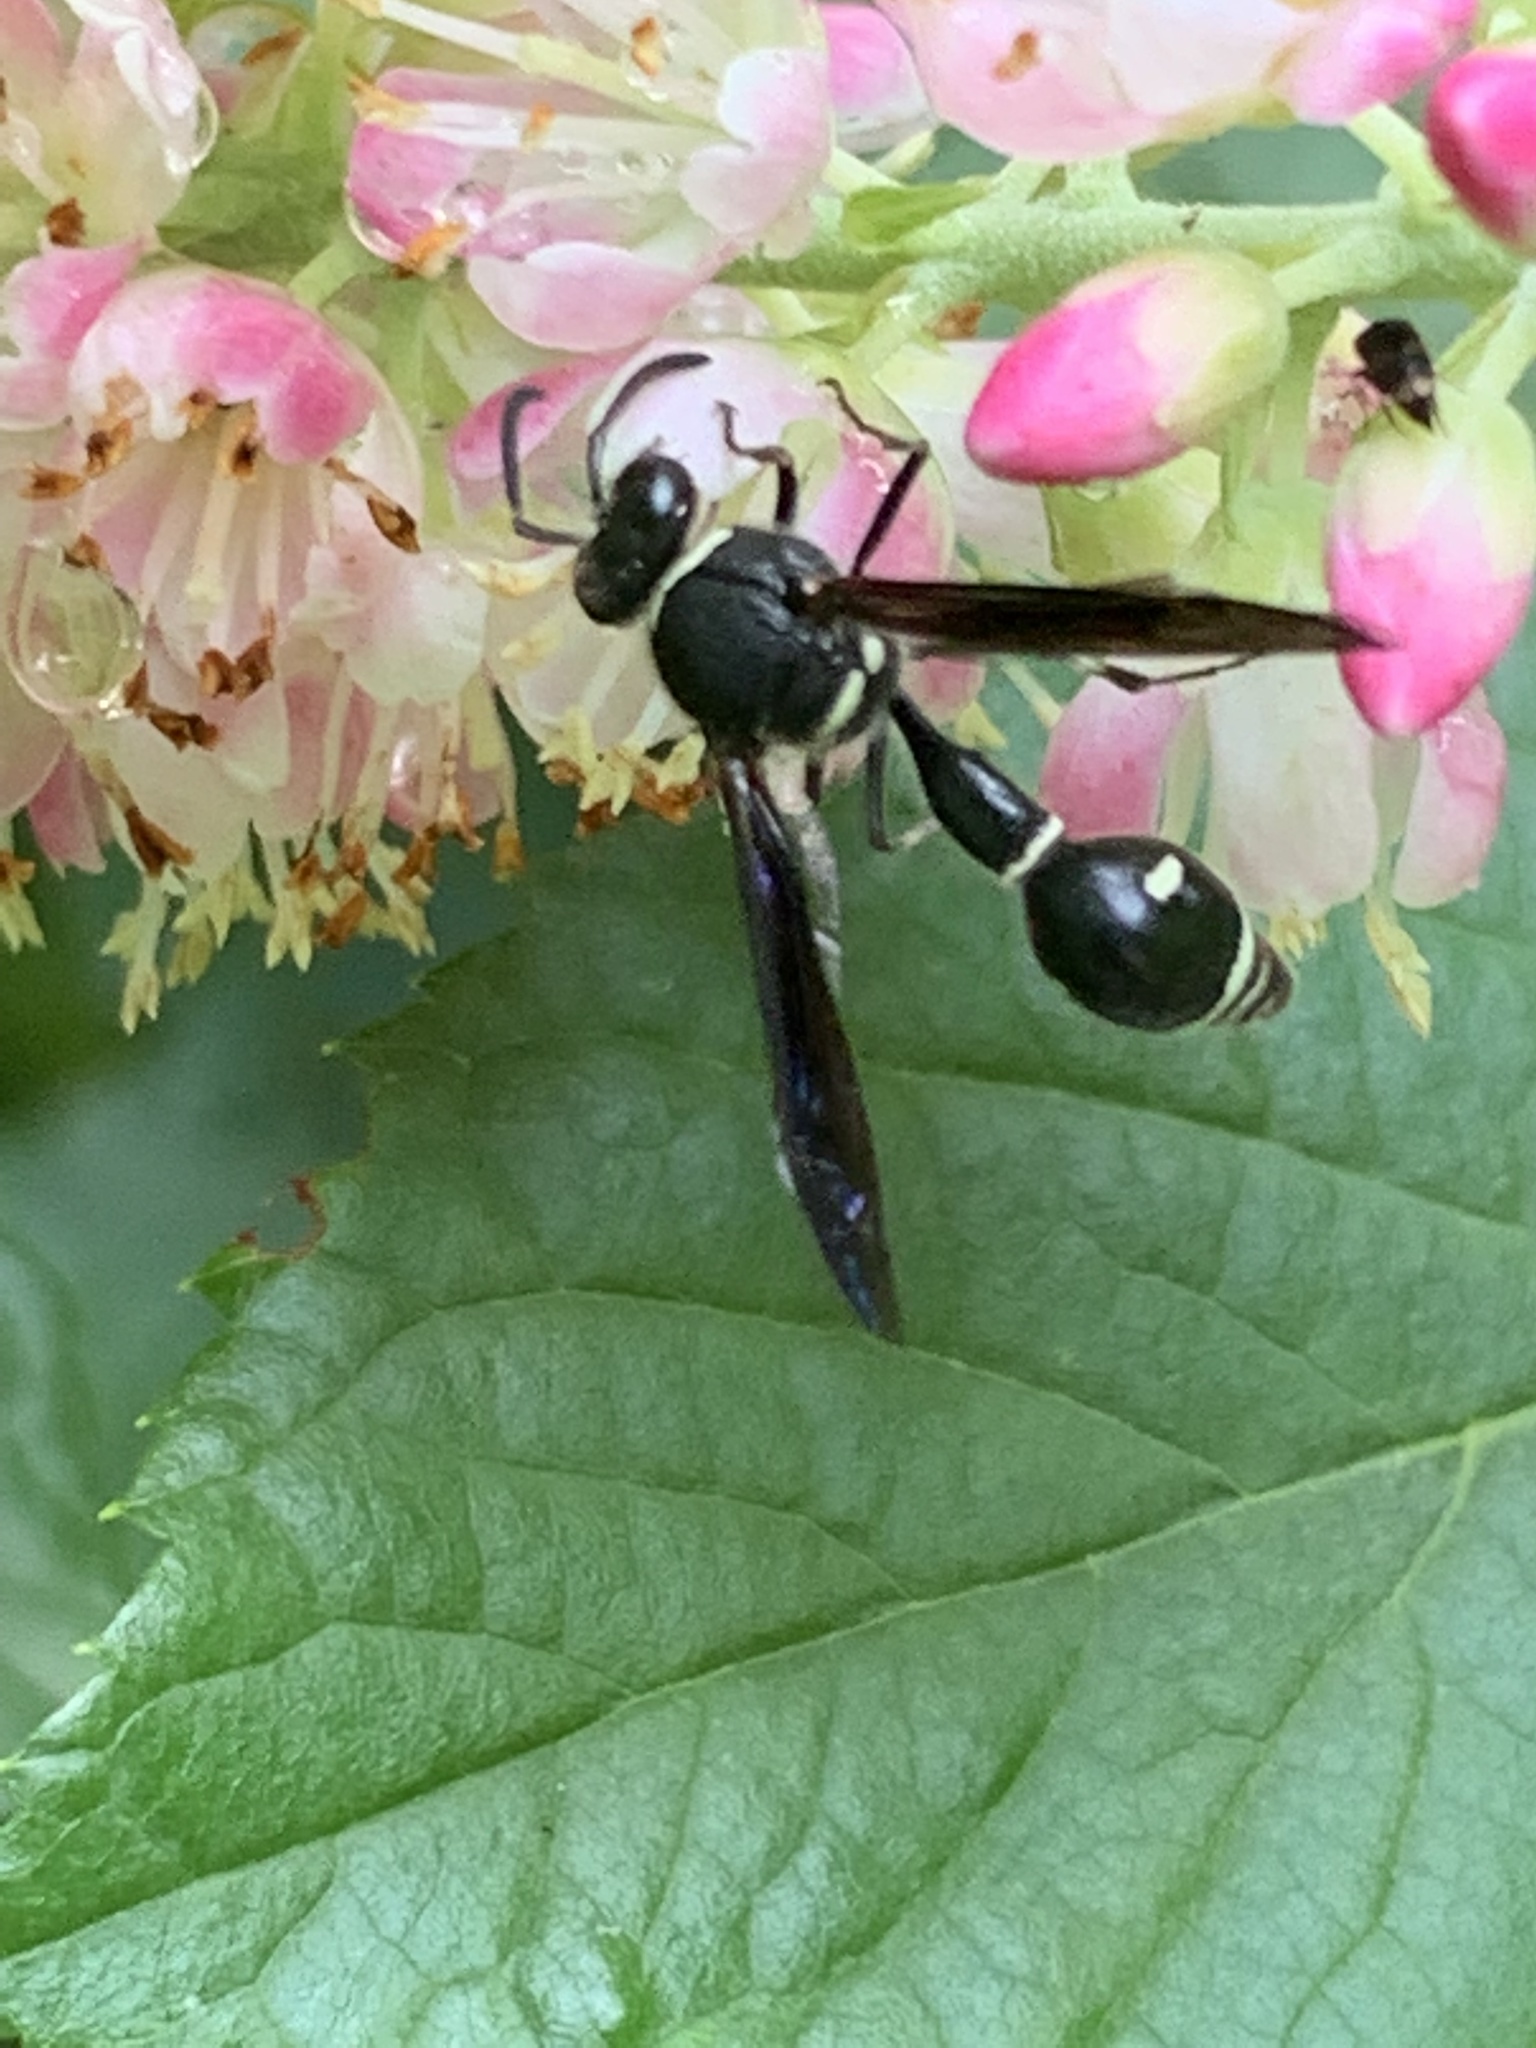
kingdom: Animalia
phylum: Arthropoda
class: Insecta
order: Hymenoptera
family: Vespidae
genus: Eumenes
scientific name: Eumenes fraternus
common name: Fraternal potter wasp
